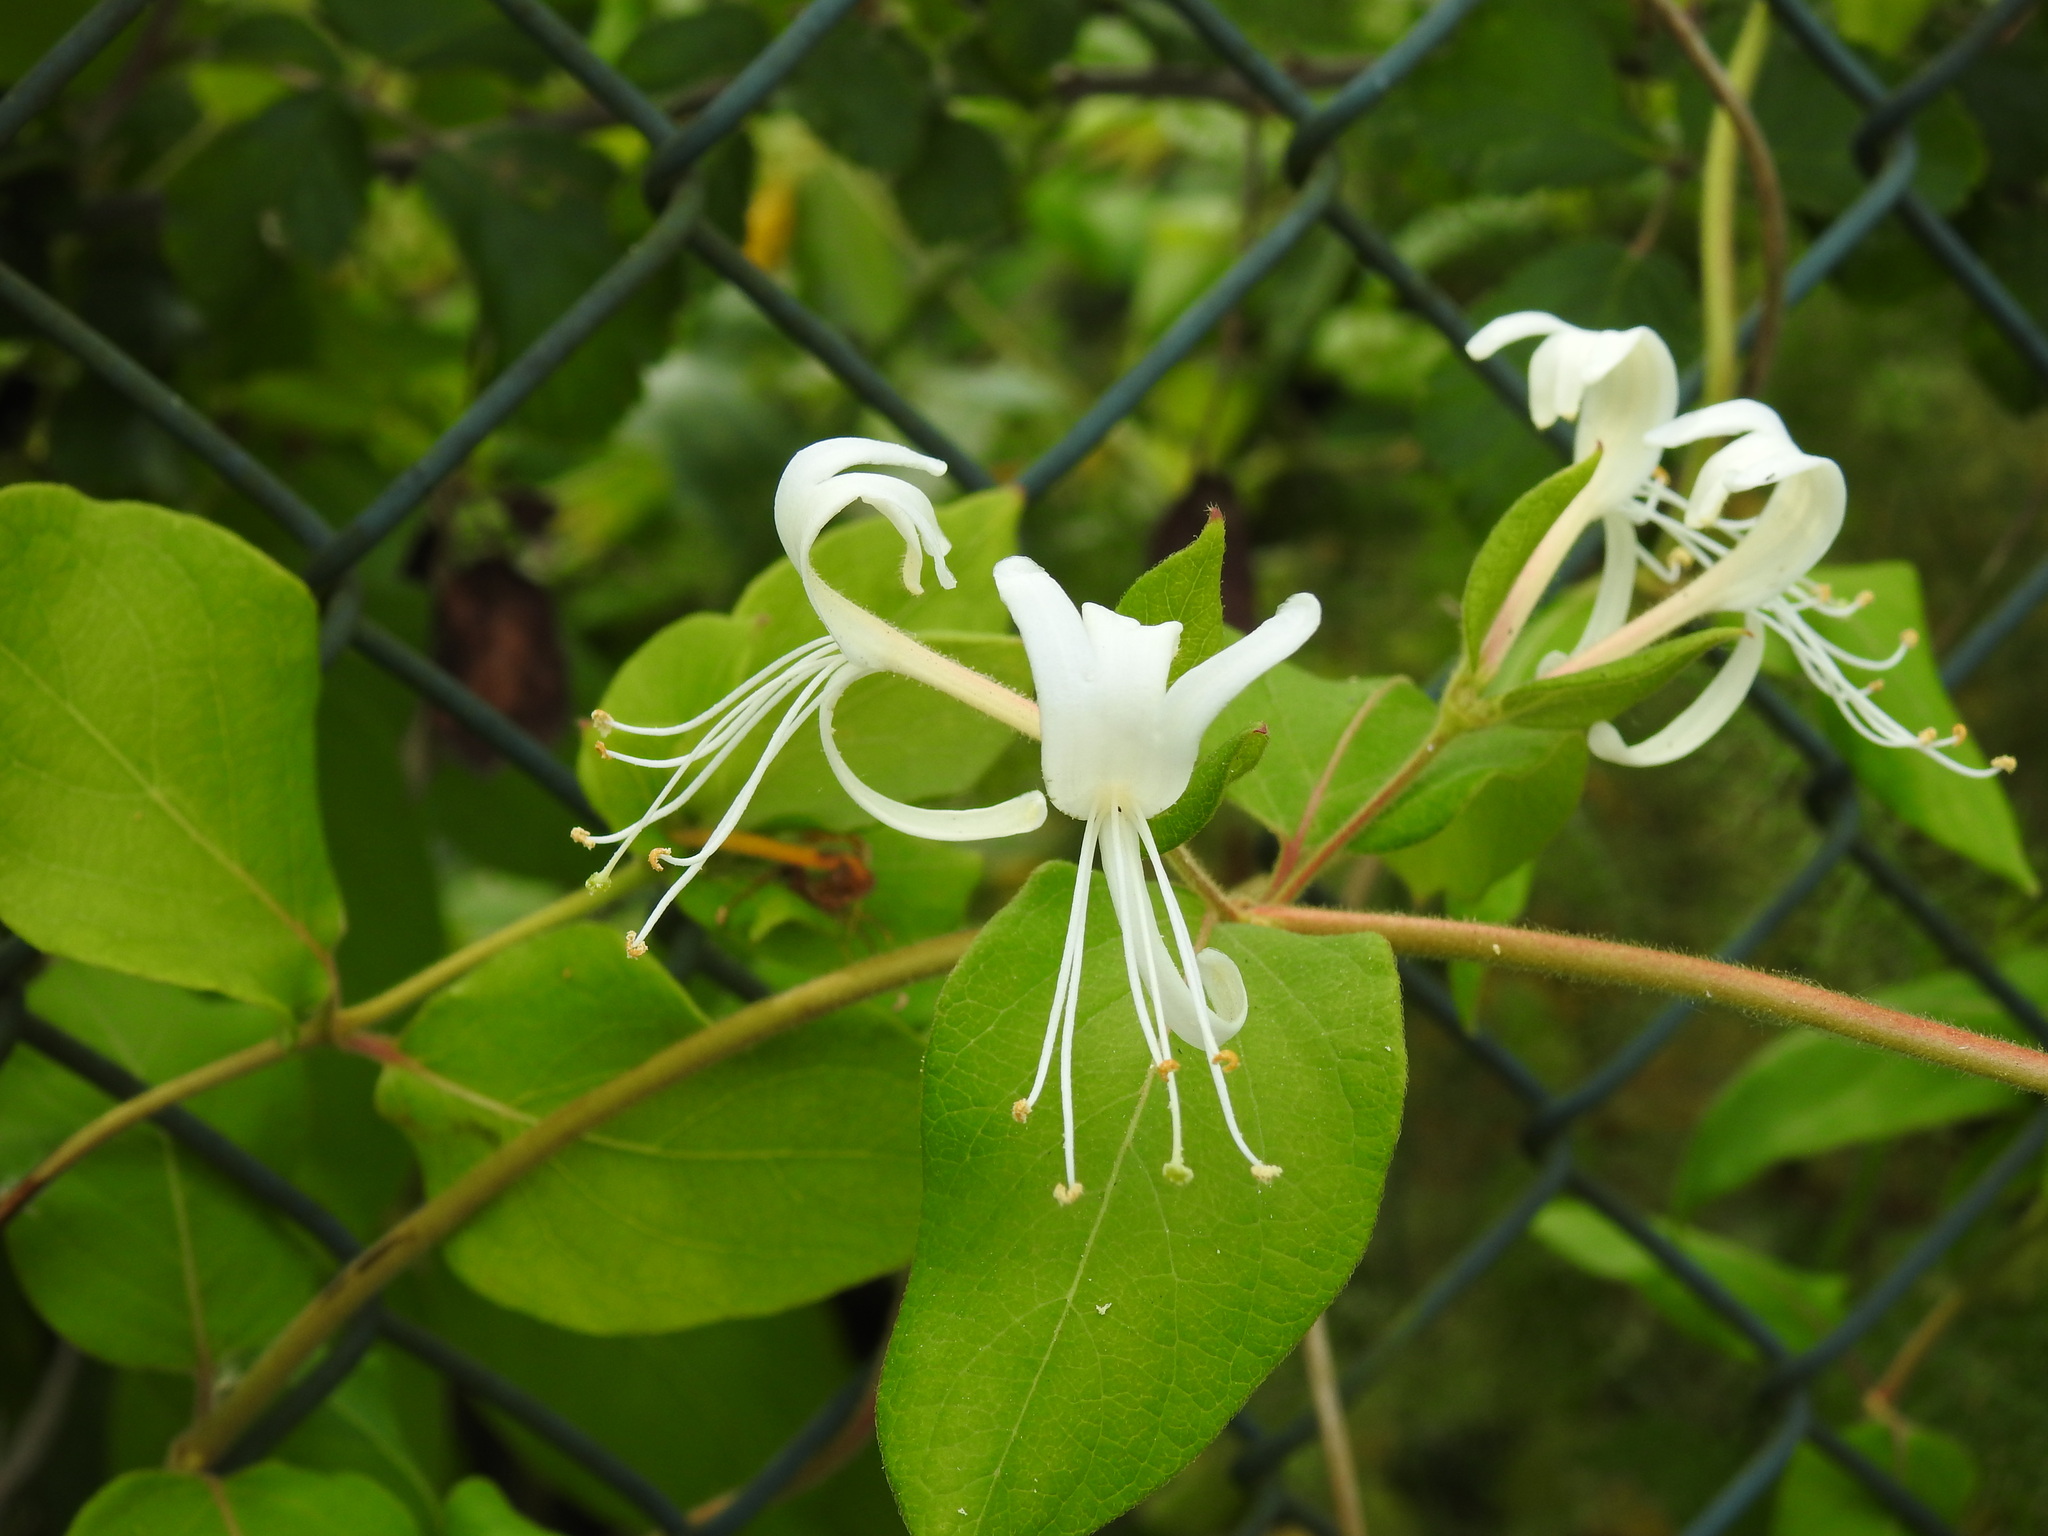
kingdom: Plantae
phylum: Tracheophyta
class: Magnoliopsida
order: Dipsacales
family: Caprifoliaceae
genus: Lonicera
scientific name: Lonicera japonica
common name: Japanese honeysuckle
